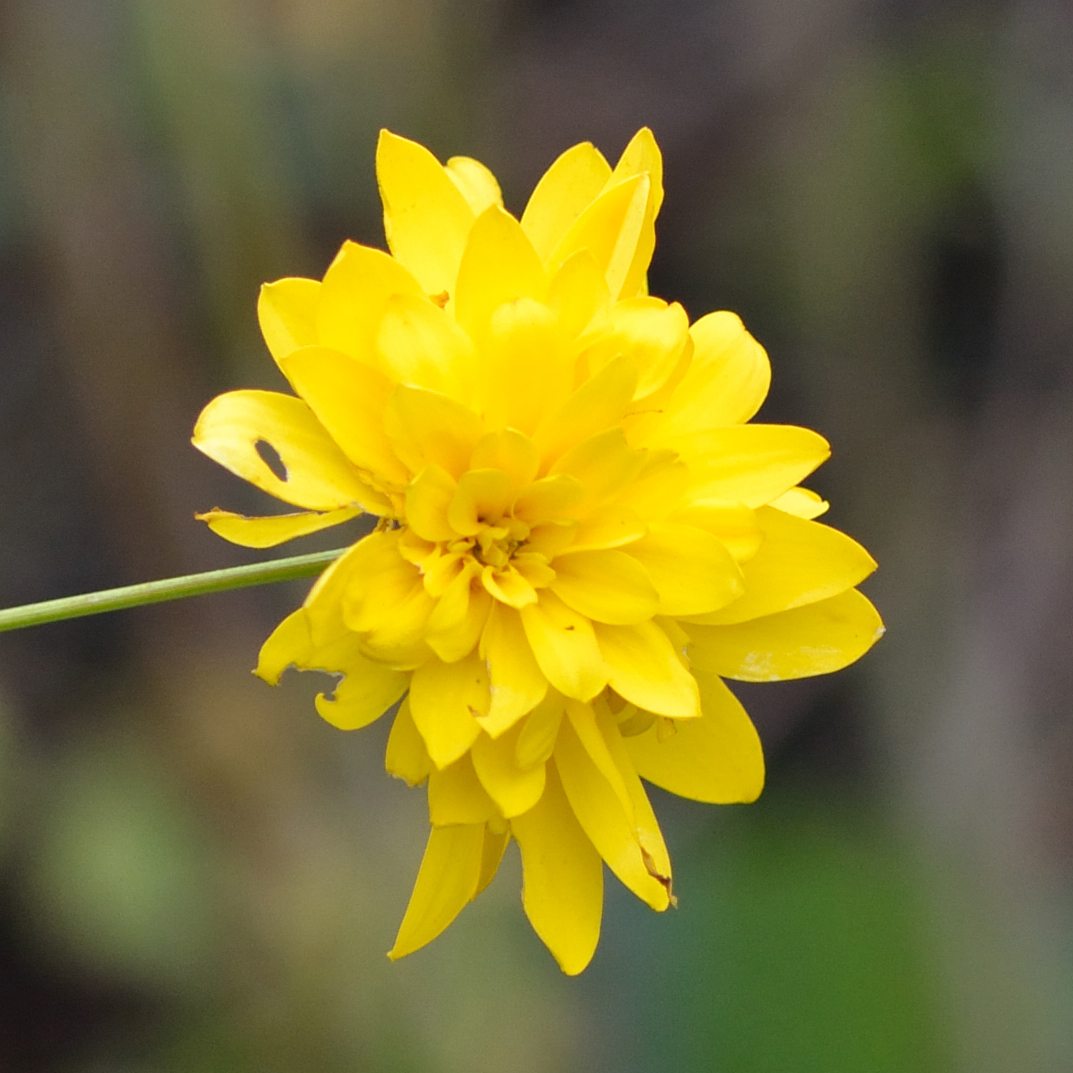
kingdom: Plantae
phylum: Tracheophyta
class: Magnoliopsida
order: Asterales
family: Asteraceae
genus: Rudbeckia
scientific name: Rudbeckia laciniata
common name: Coneflower
